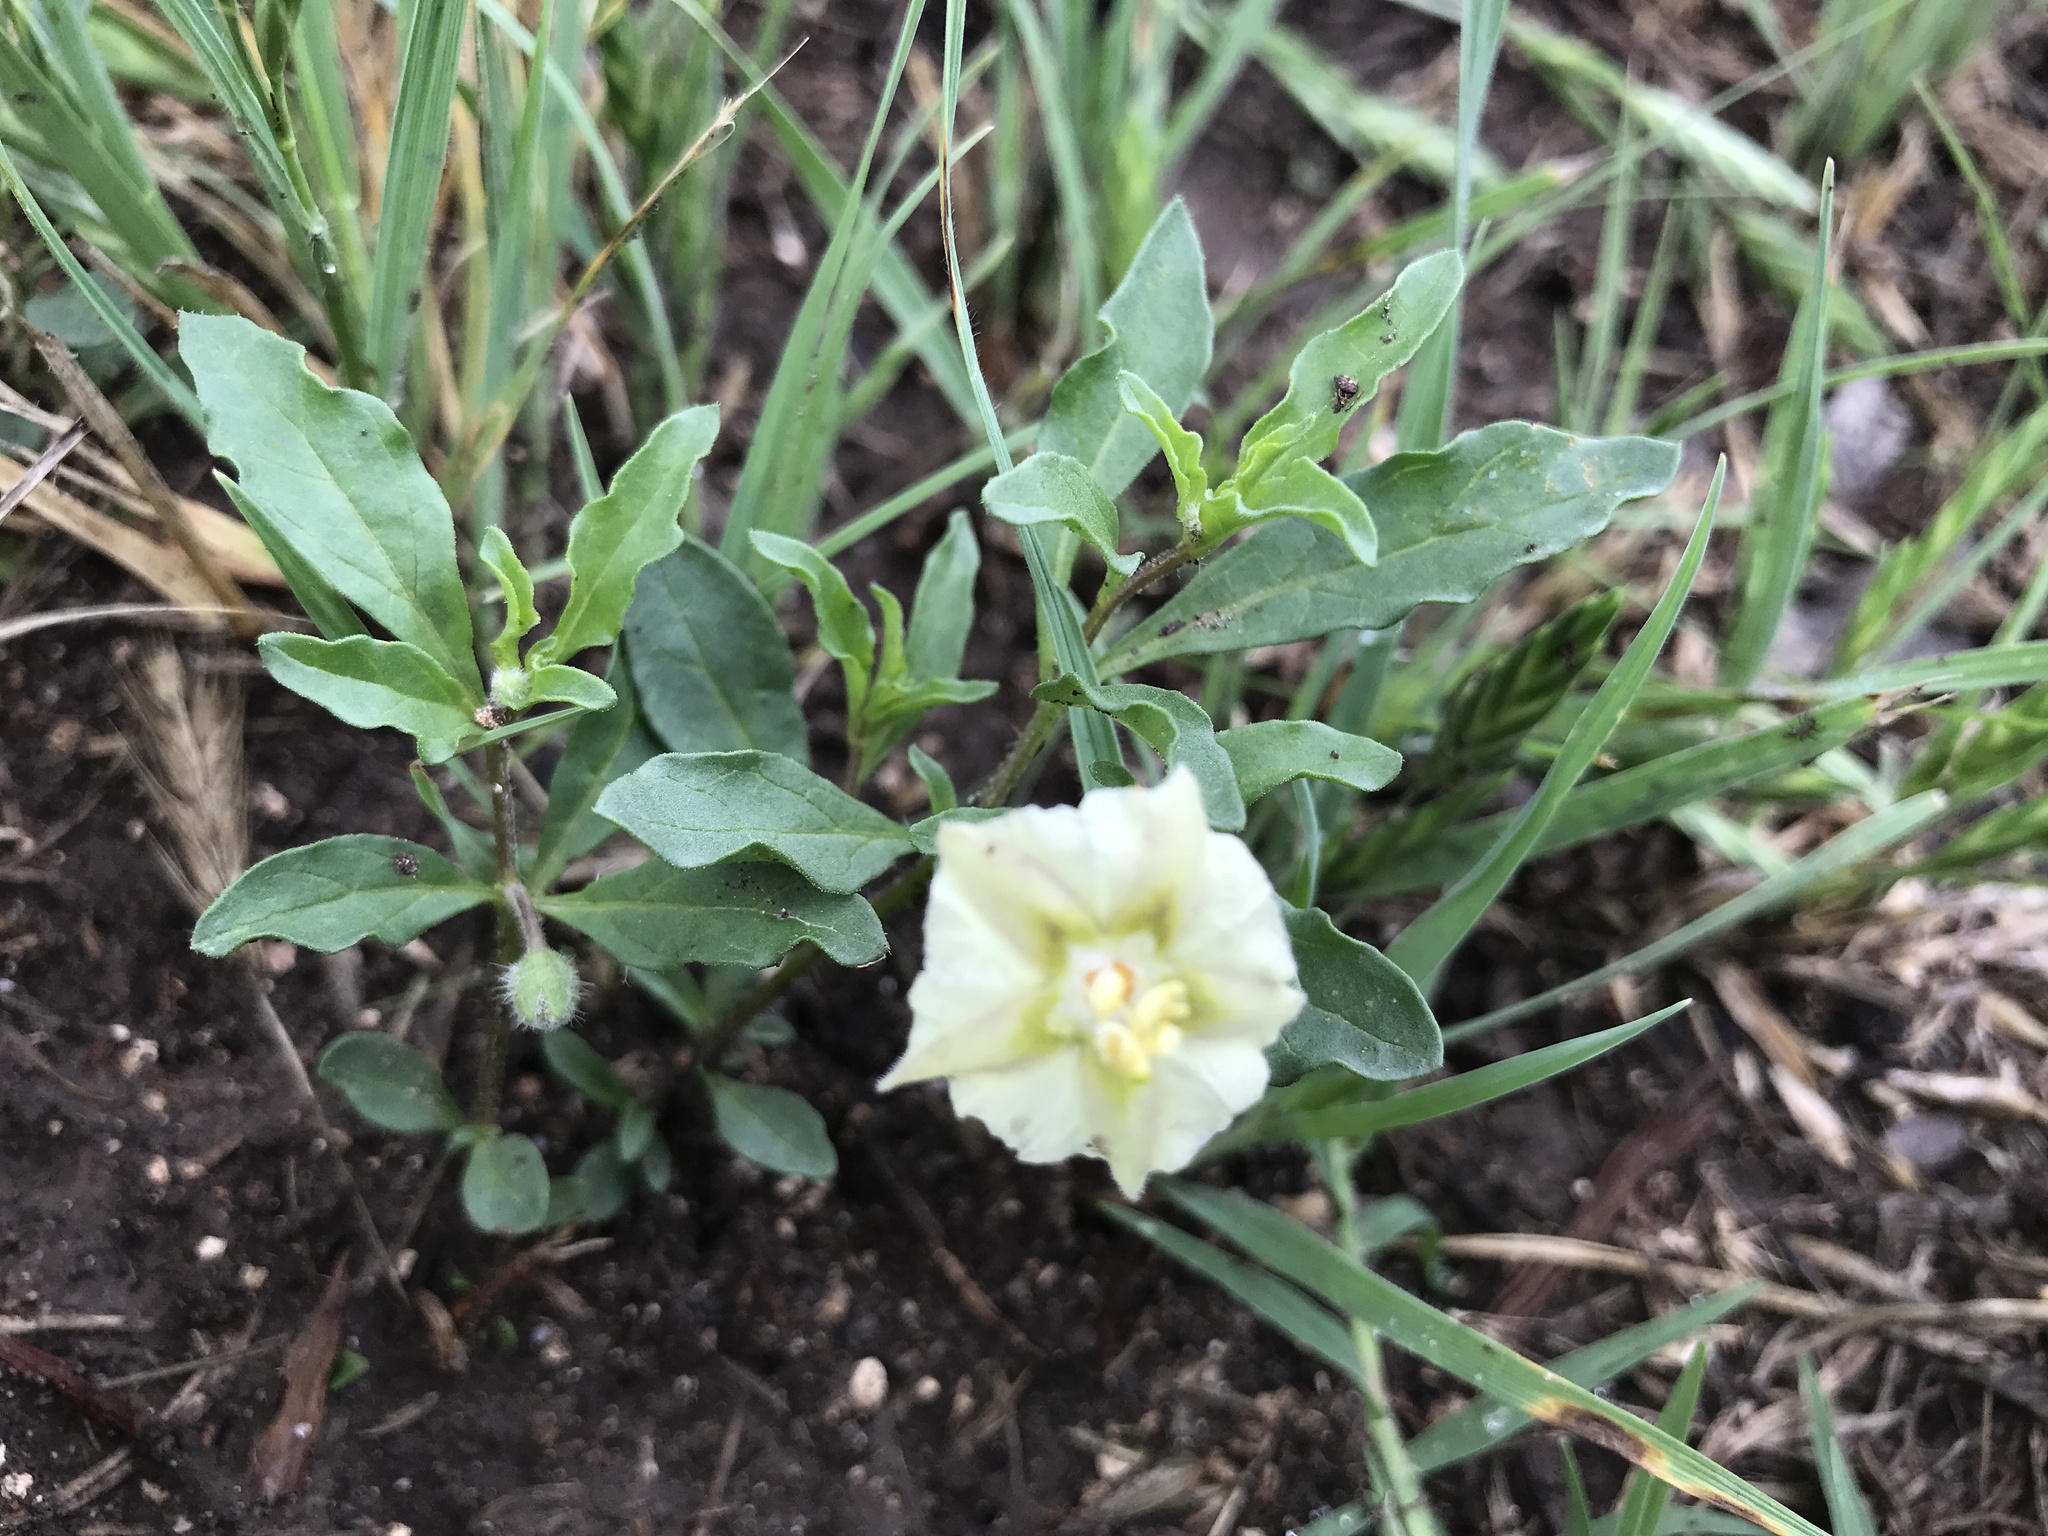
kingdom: Plantae
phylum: Tracheophyta
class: Magnoliopsida
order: Solanales
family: Solanaceae
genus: Chamaesaracha
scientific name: Chamaesaracha edwardsiana
